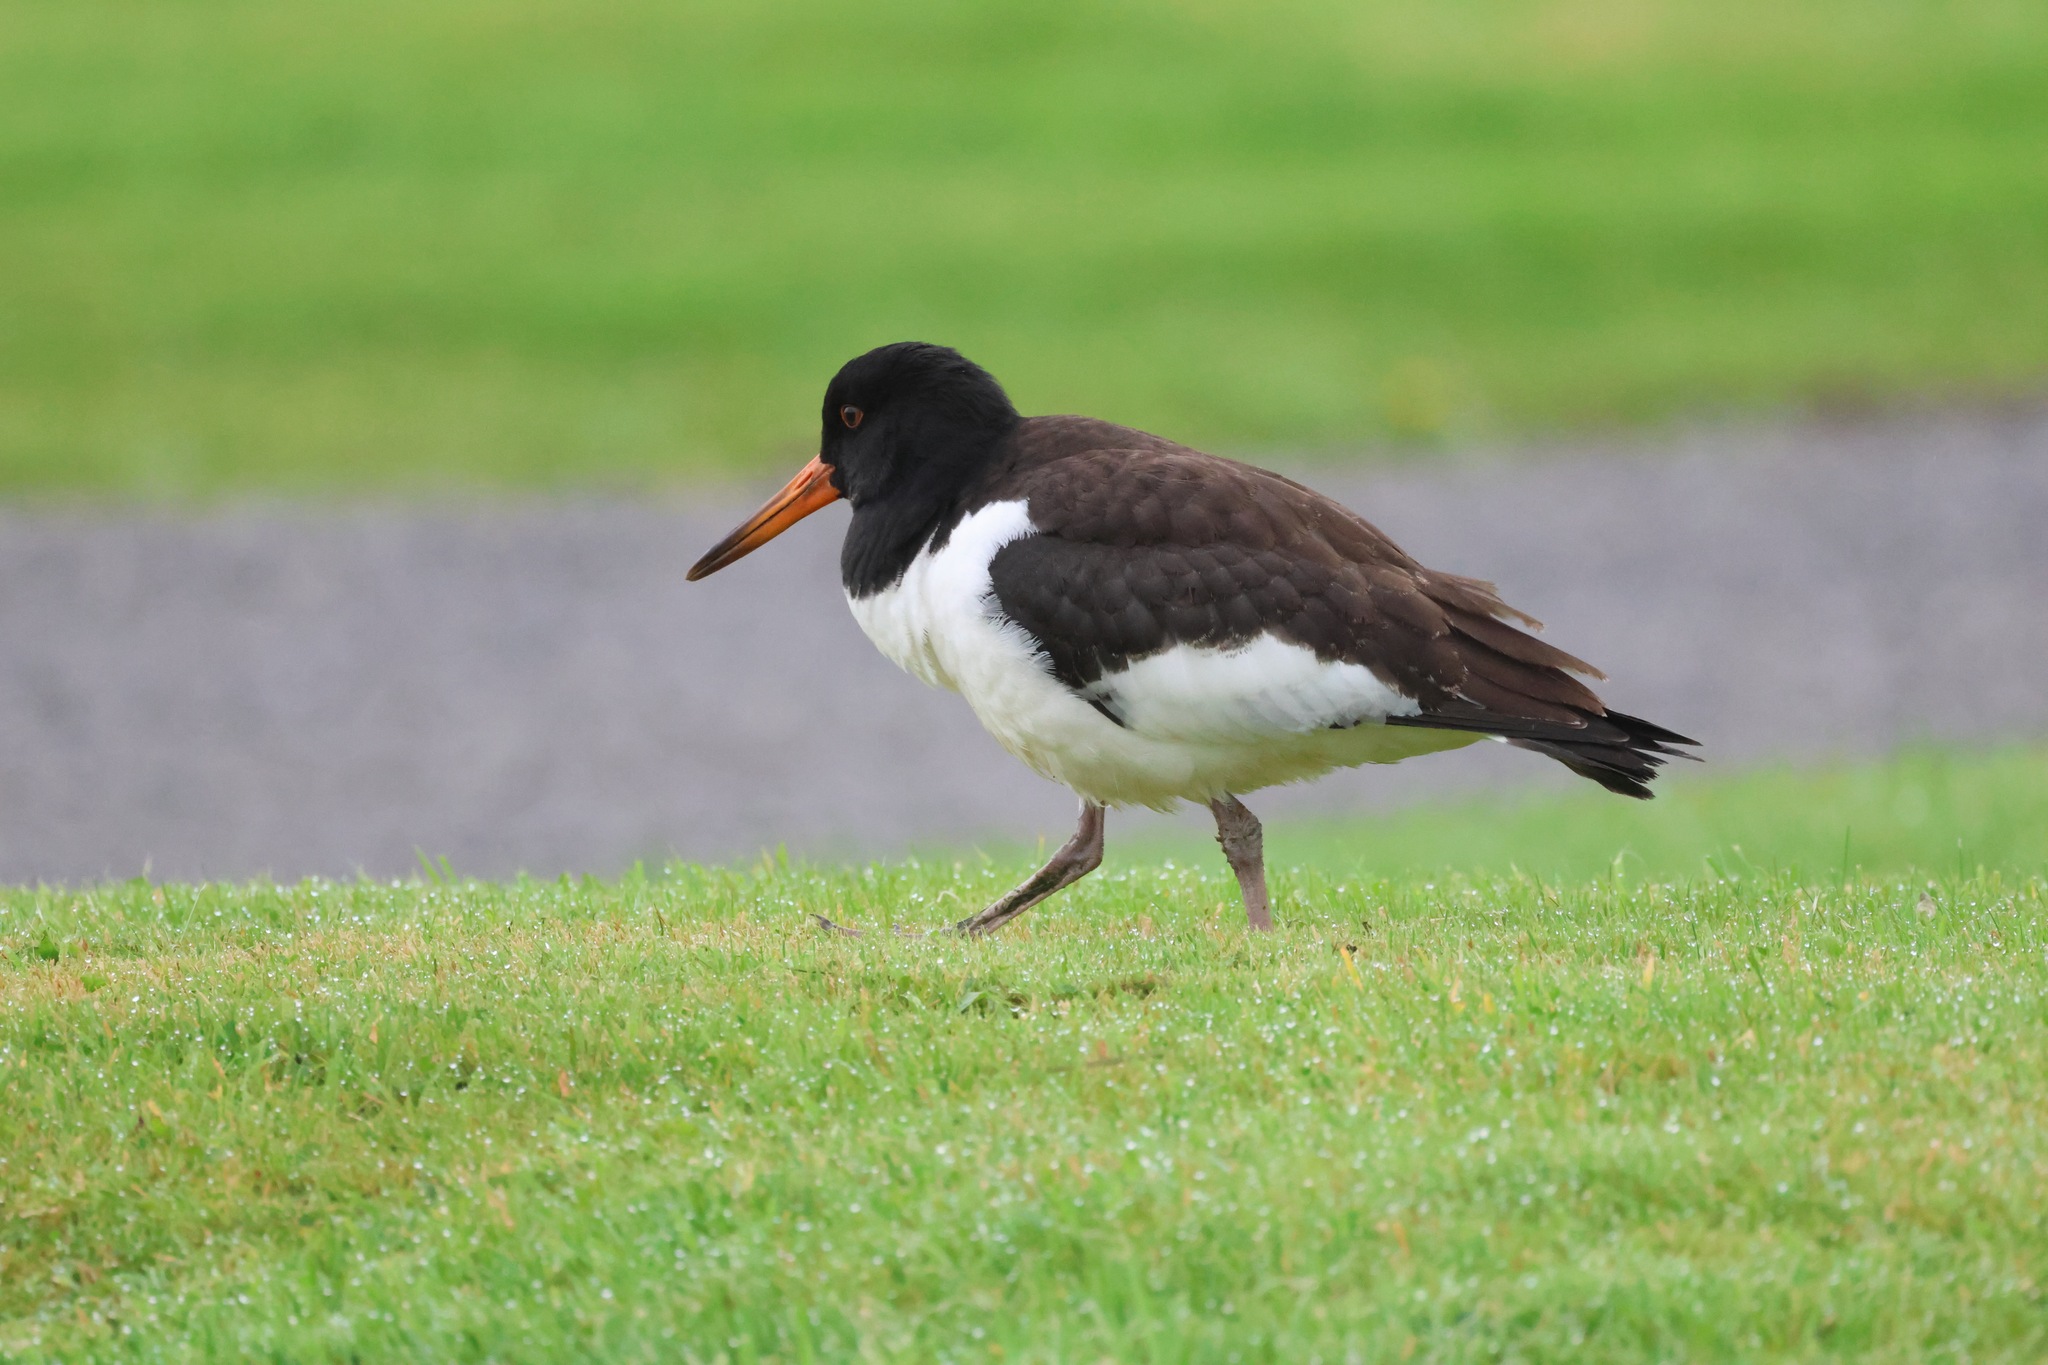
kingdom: Animalia
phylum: Chordata
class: Aves
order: Charadriiformes
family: Haematopodidae
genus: Haematopus
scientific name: Haematopus ostralegus
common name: Eurasian oystercatcher
